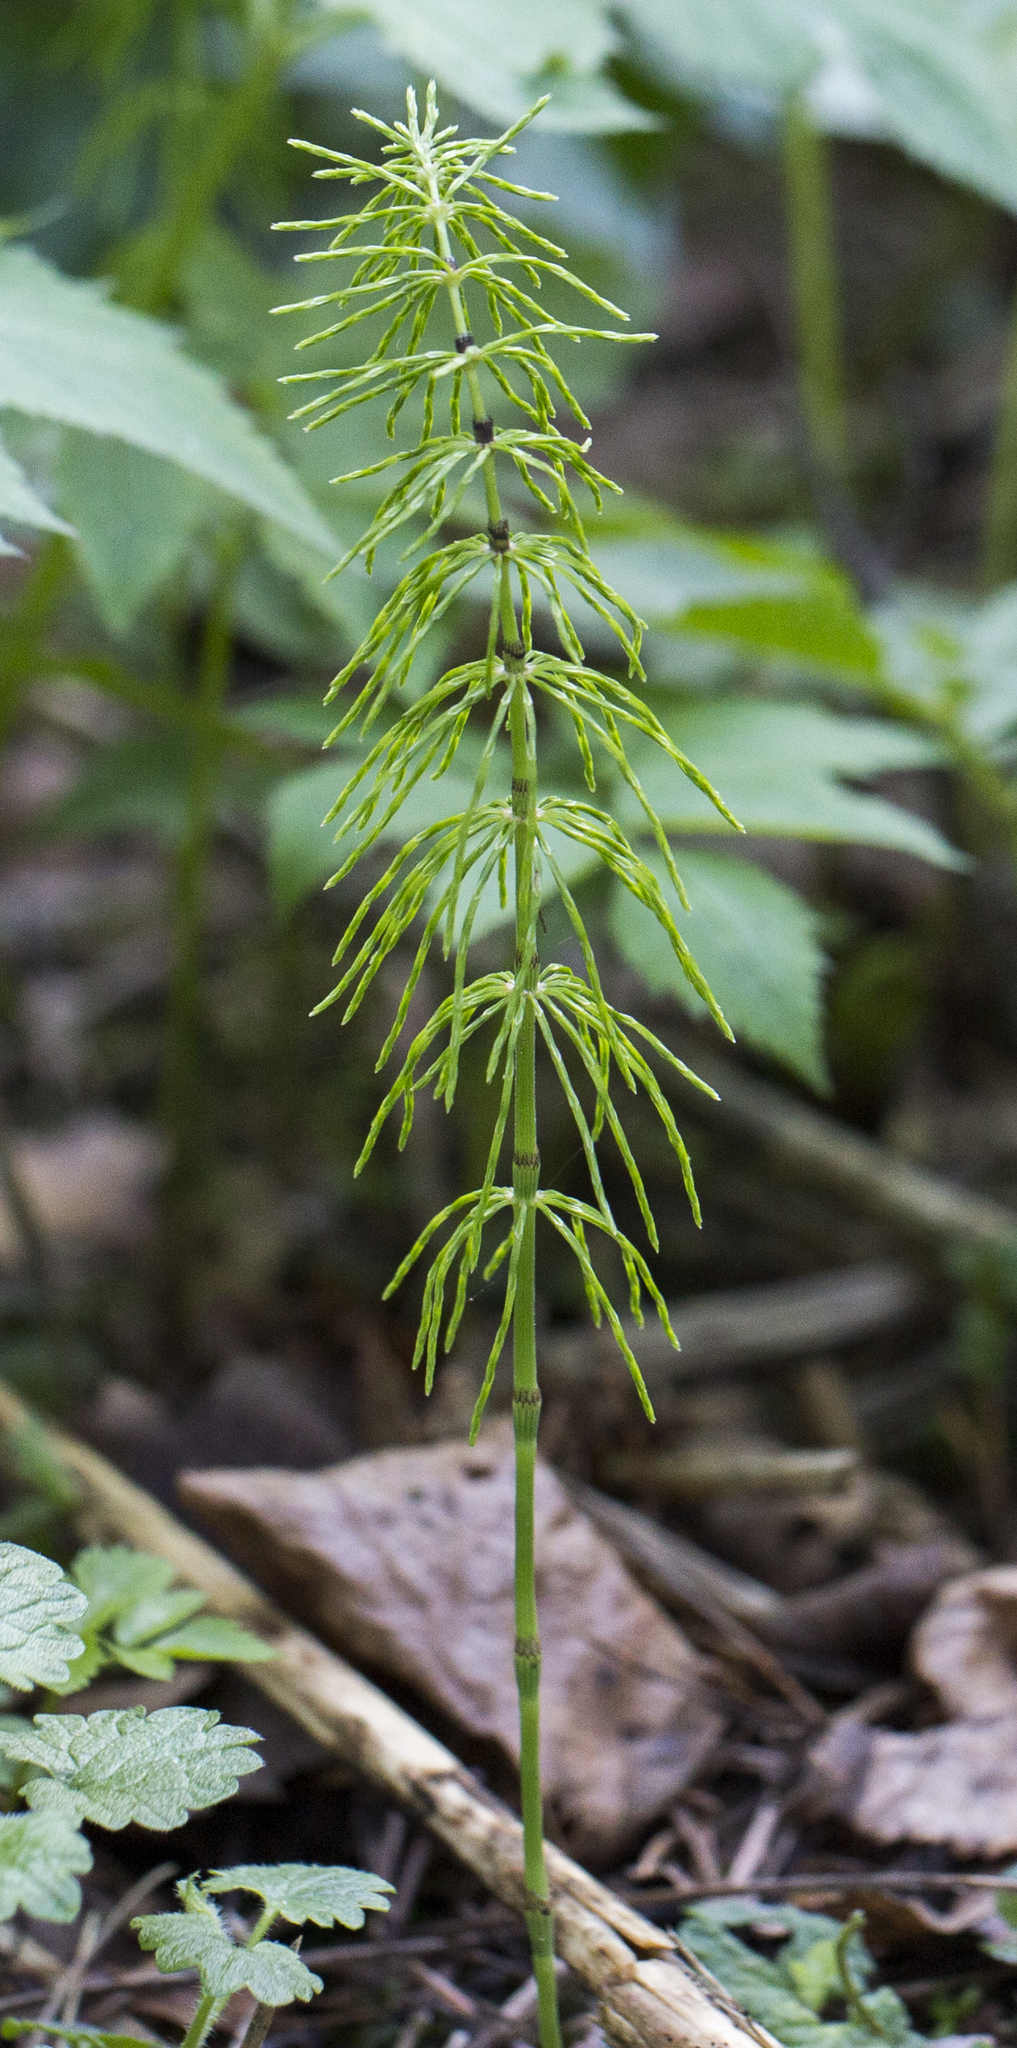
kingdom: Plantae
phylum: Tracheophyta
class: Polypodiopsida
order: Equisetales
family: Equisetaceae
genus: Equisetum
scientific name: Equisetum pratense
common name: Meadow horsetail
